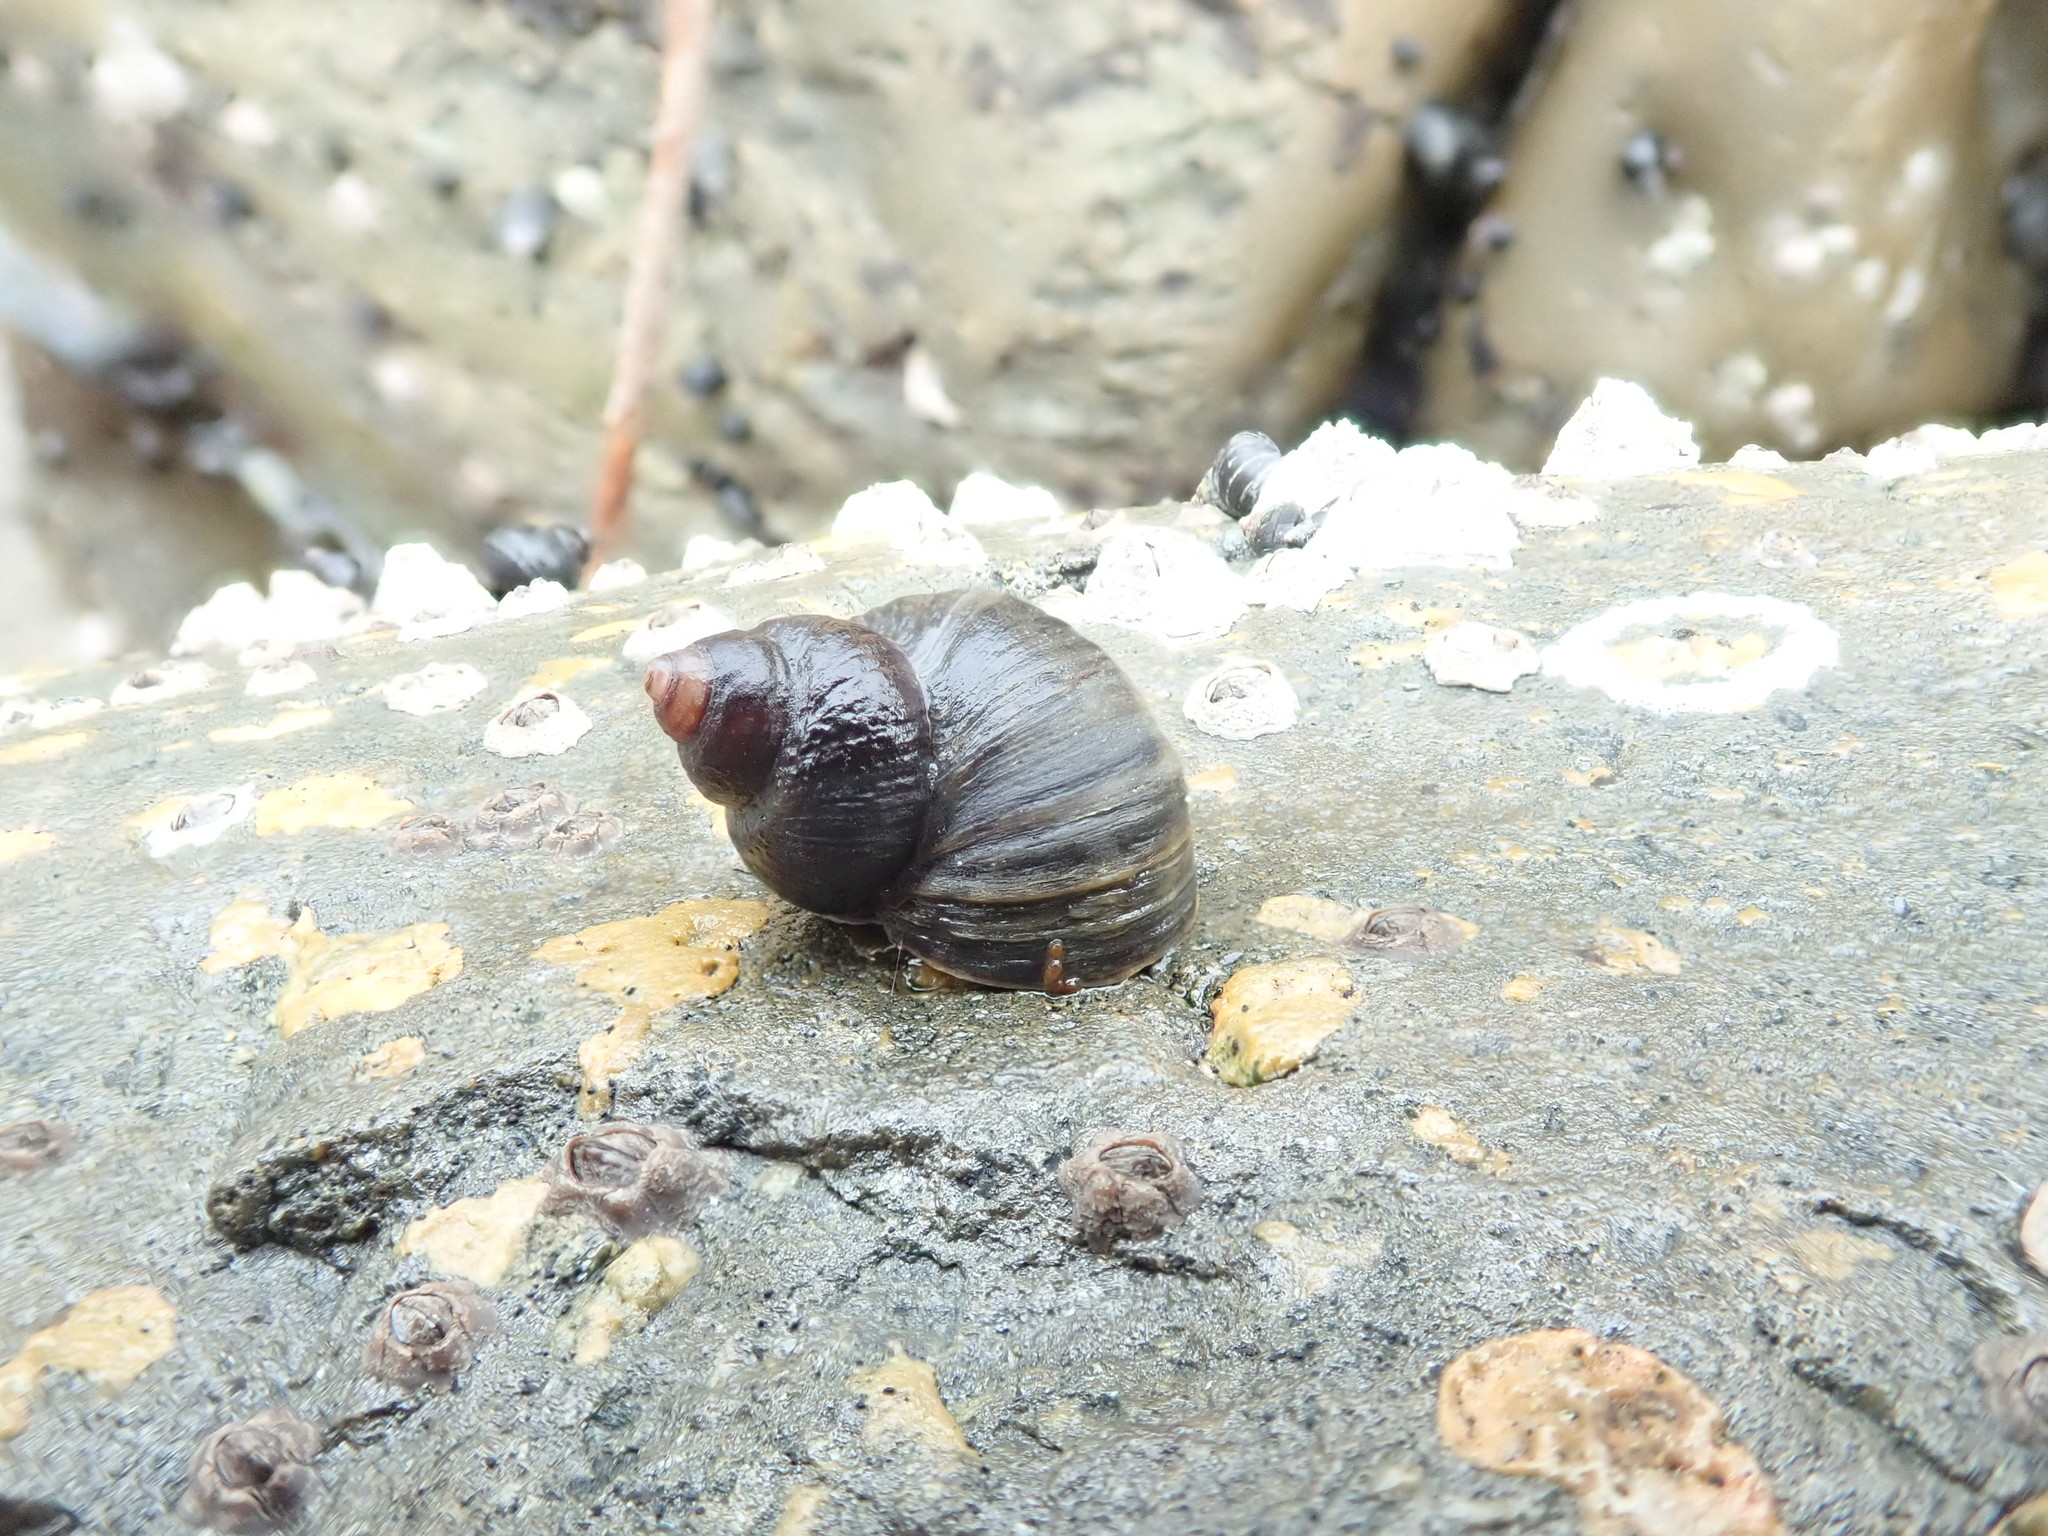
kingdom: Animalia
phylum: Mollusca
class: Gastropoda
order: Littorinimorpha
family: Littorinidae
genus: Littorina
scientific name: Littorina sitkana
